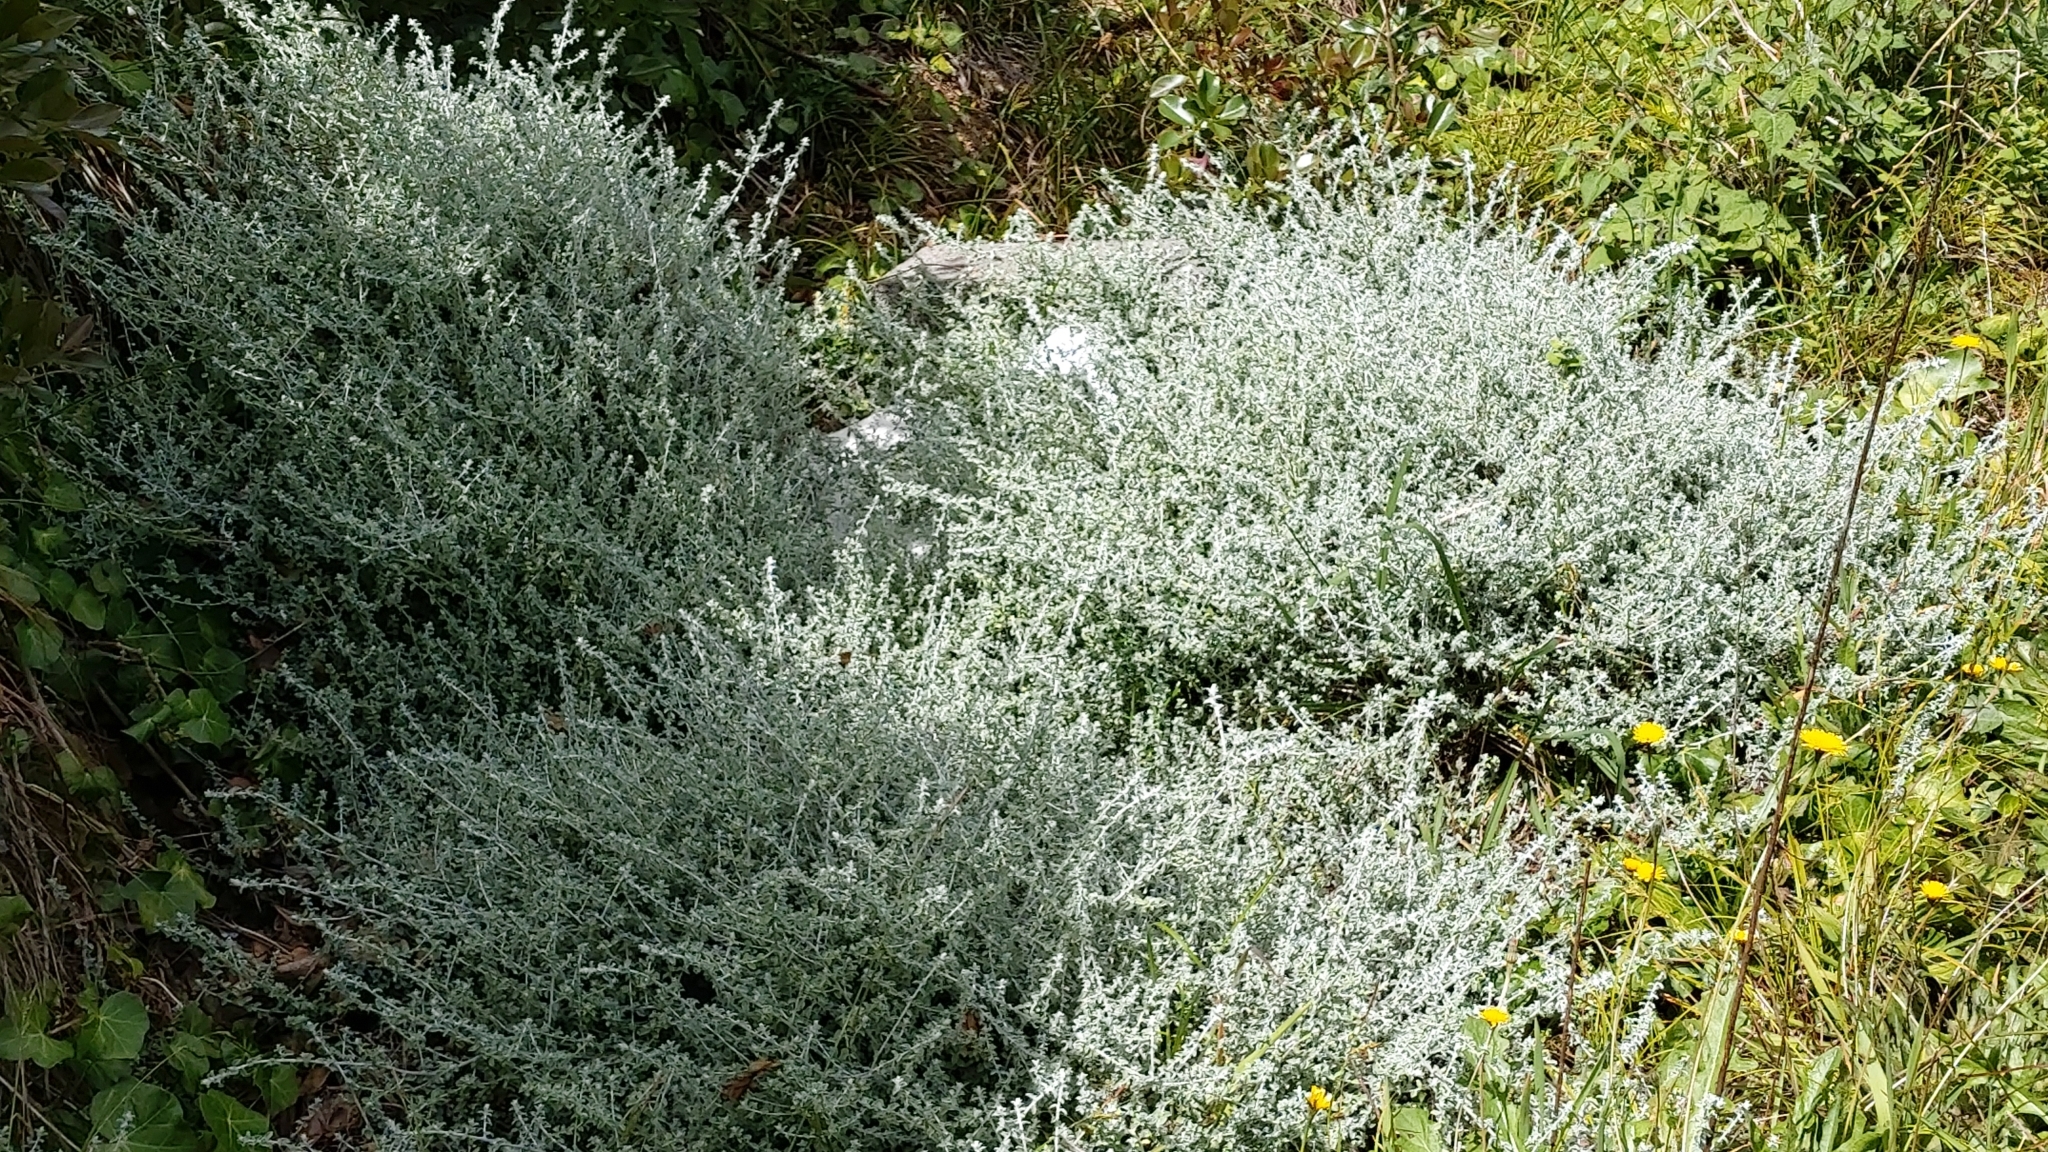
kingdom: Plantae
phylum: Tracheophyta
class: Magnoliopsida
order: Asterales
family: Asteraceae
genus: Plecostachys
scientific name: Plecostachys serpyllifolia
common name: Petite licorice
